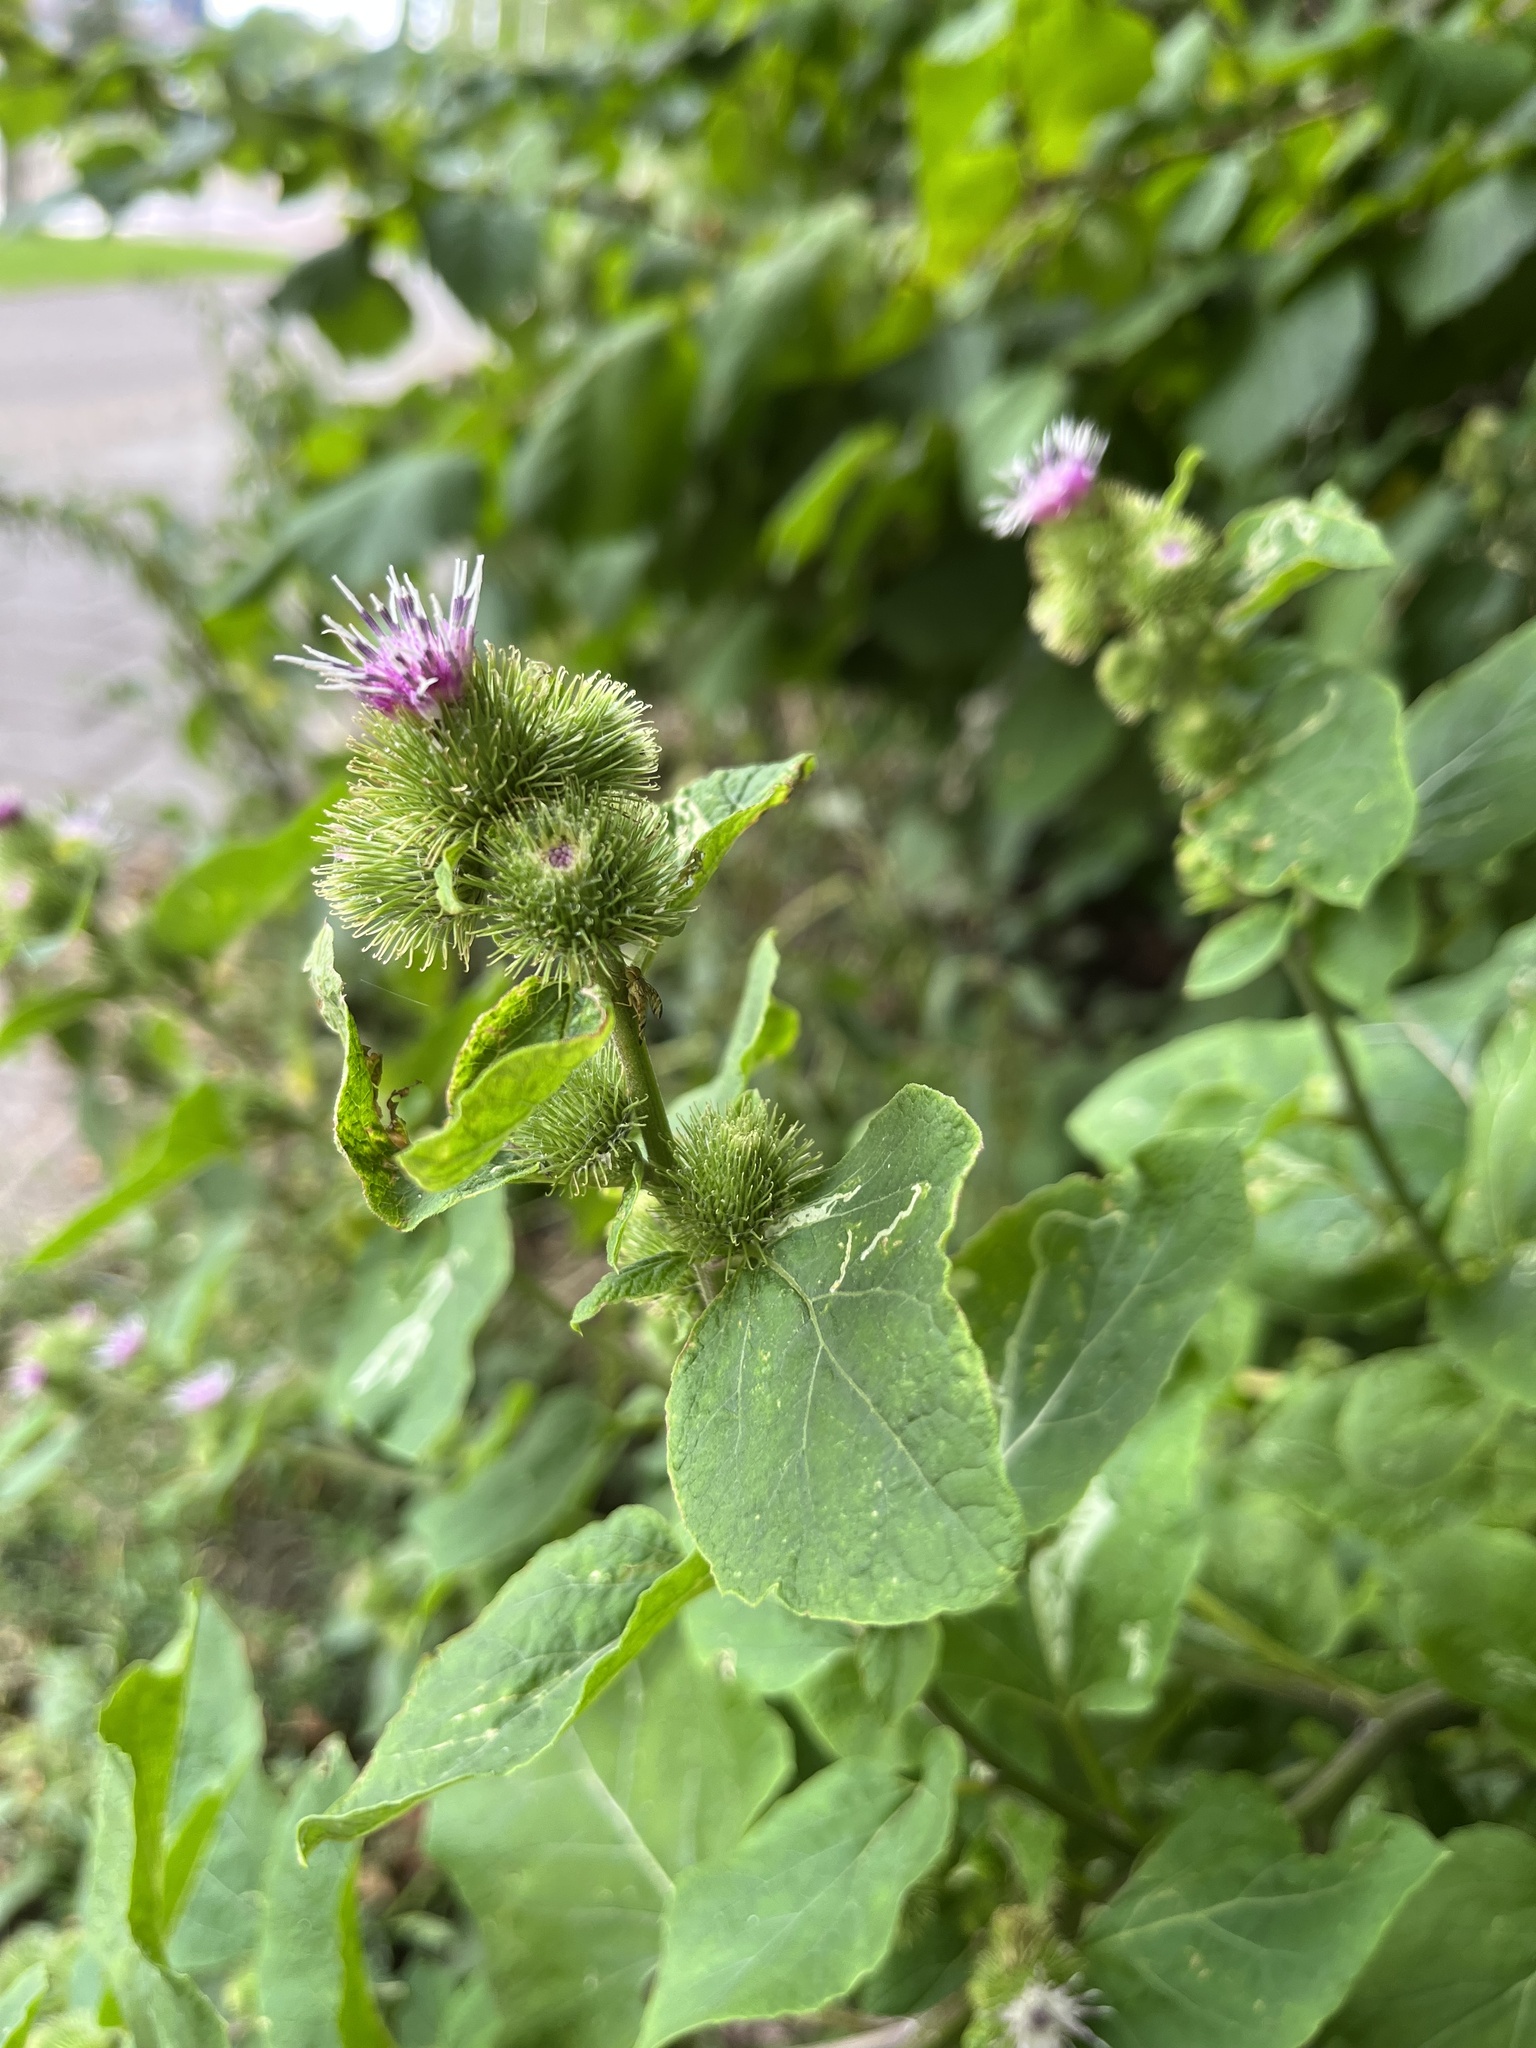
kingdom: Plantae
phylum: Tracheophyta
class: Magnoliopsida
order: Asterales
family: Asteraceae
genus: Arctium
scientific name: Arctium lappa
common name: Greater burdock
